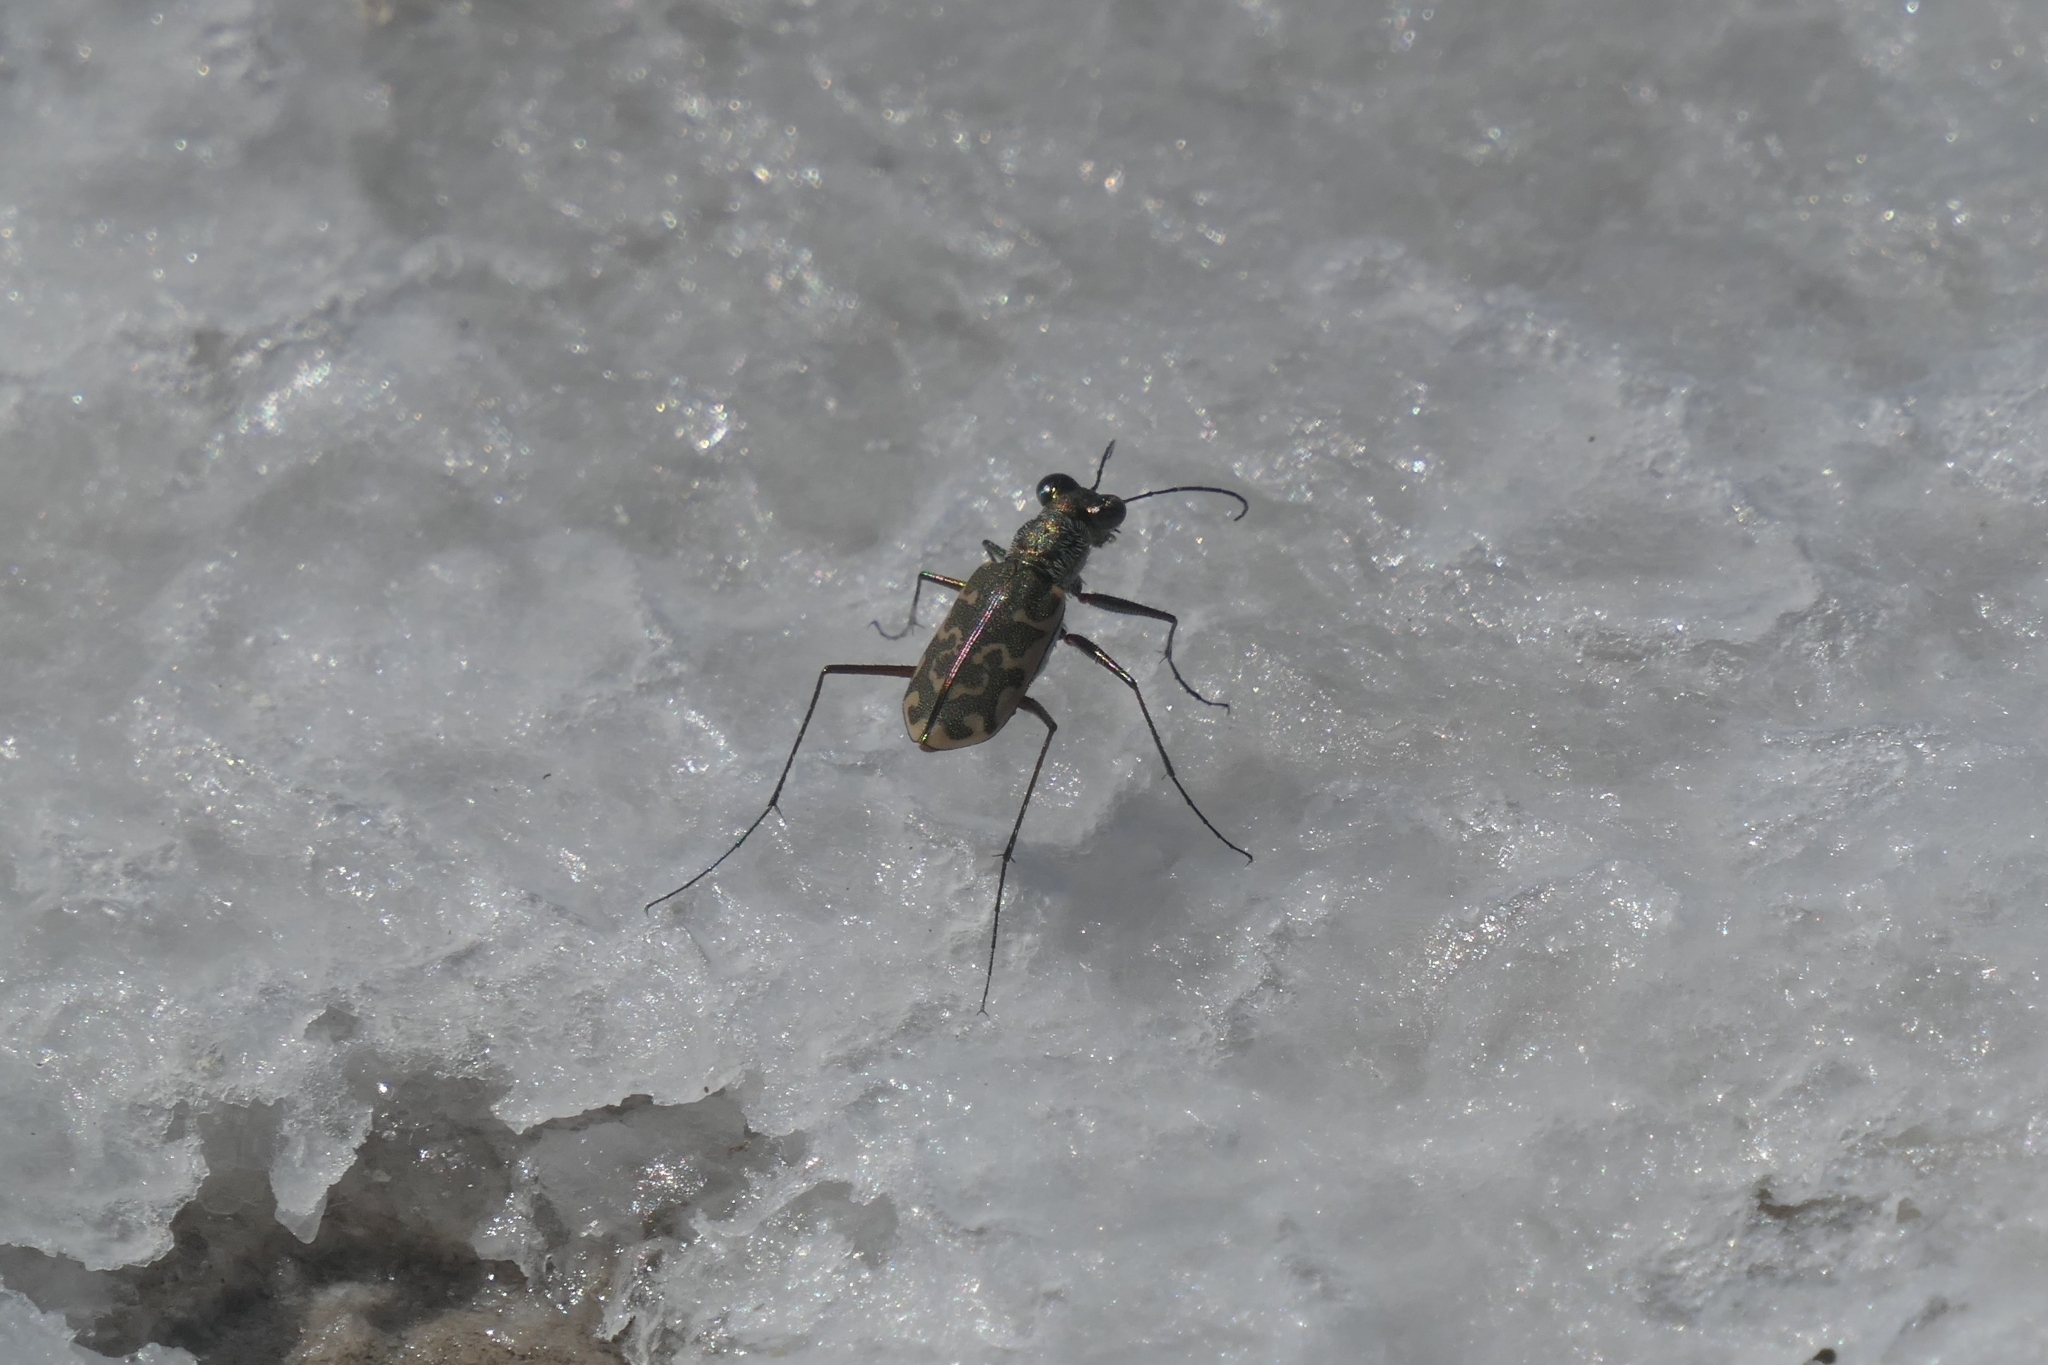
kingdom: Animalia
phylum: Arthropoda
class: Insecta
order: Coleoptera
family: Carabidae
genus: Cicindela
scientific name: Cicindela trifasciata
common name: Mudflat tiger beetle
